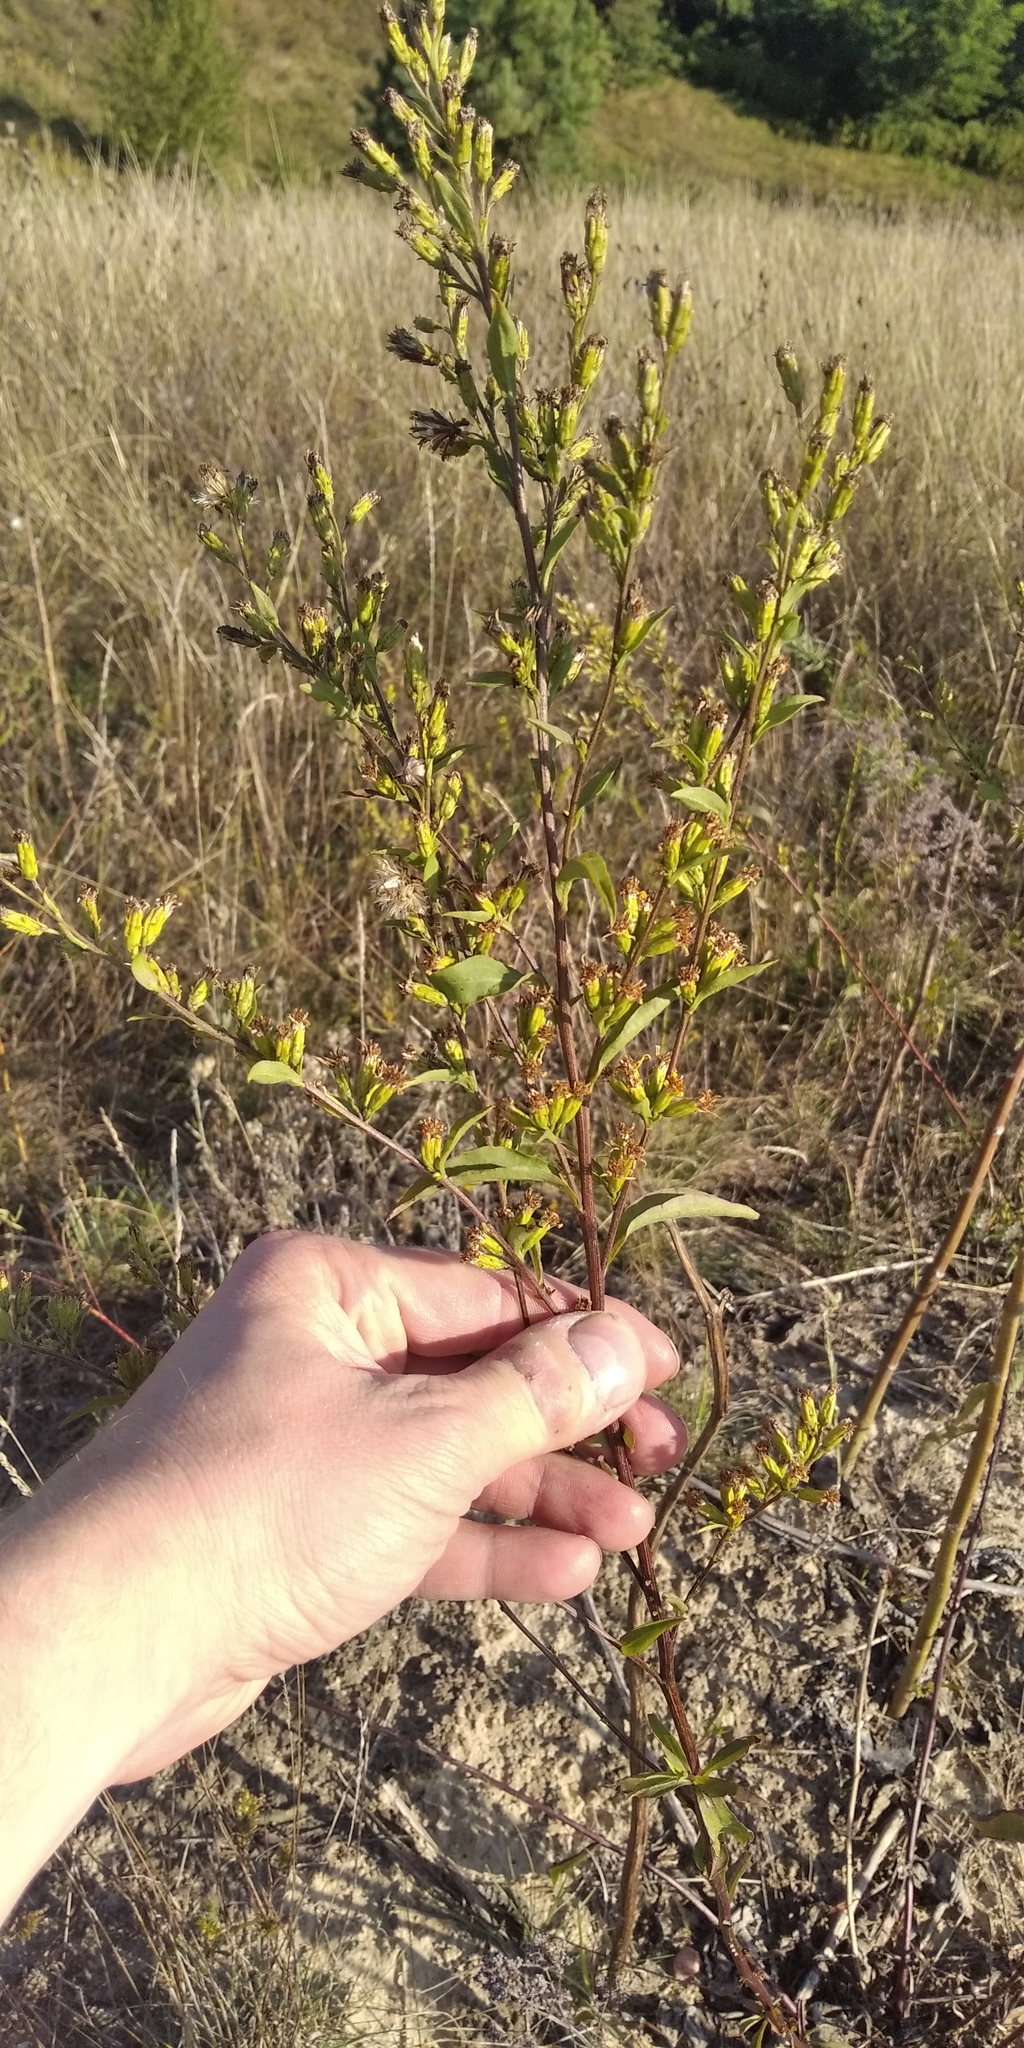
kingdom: Plantae
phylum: Tracheophyta
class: Magnoliopsida
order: Asterales
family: Asteraceae
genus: Solidago
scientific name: Solidago virgaurea
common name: Goldenrod
